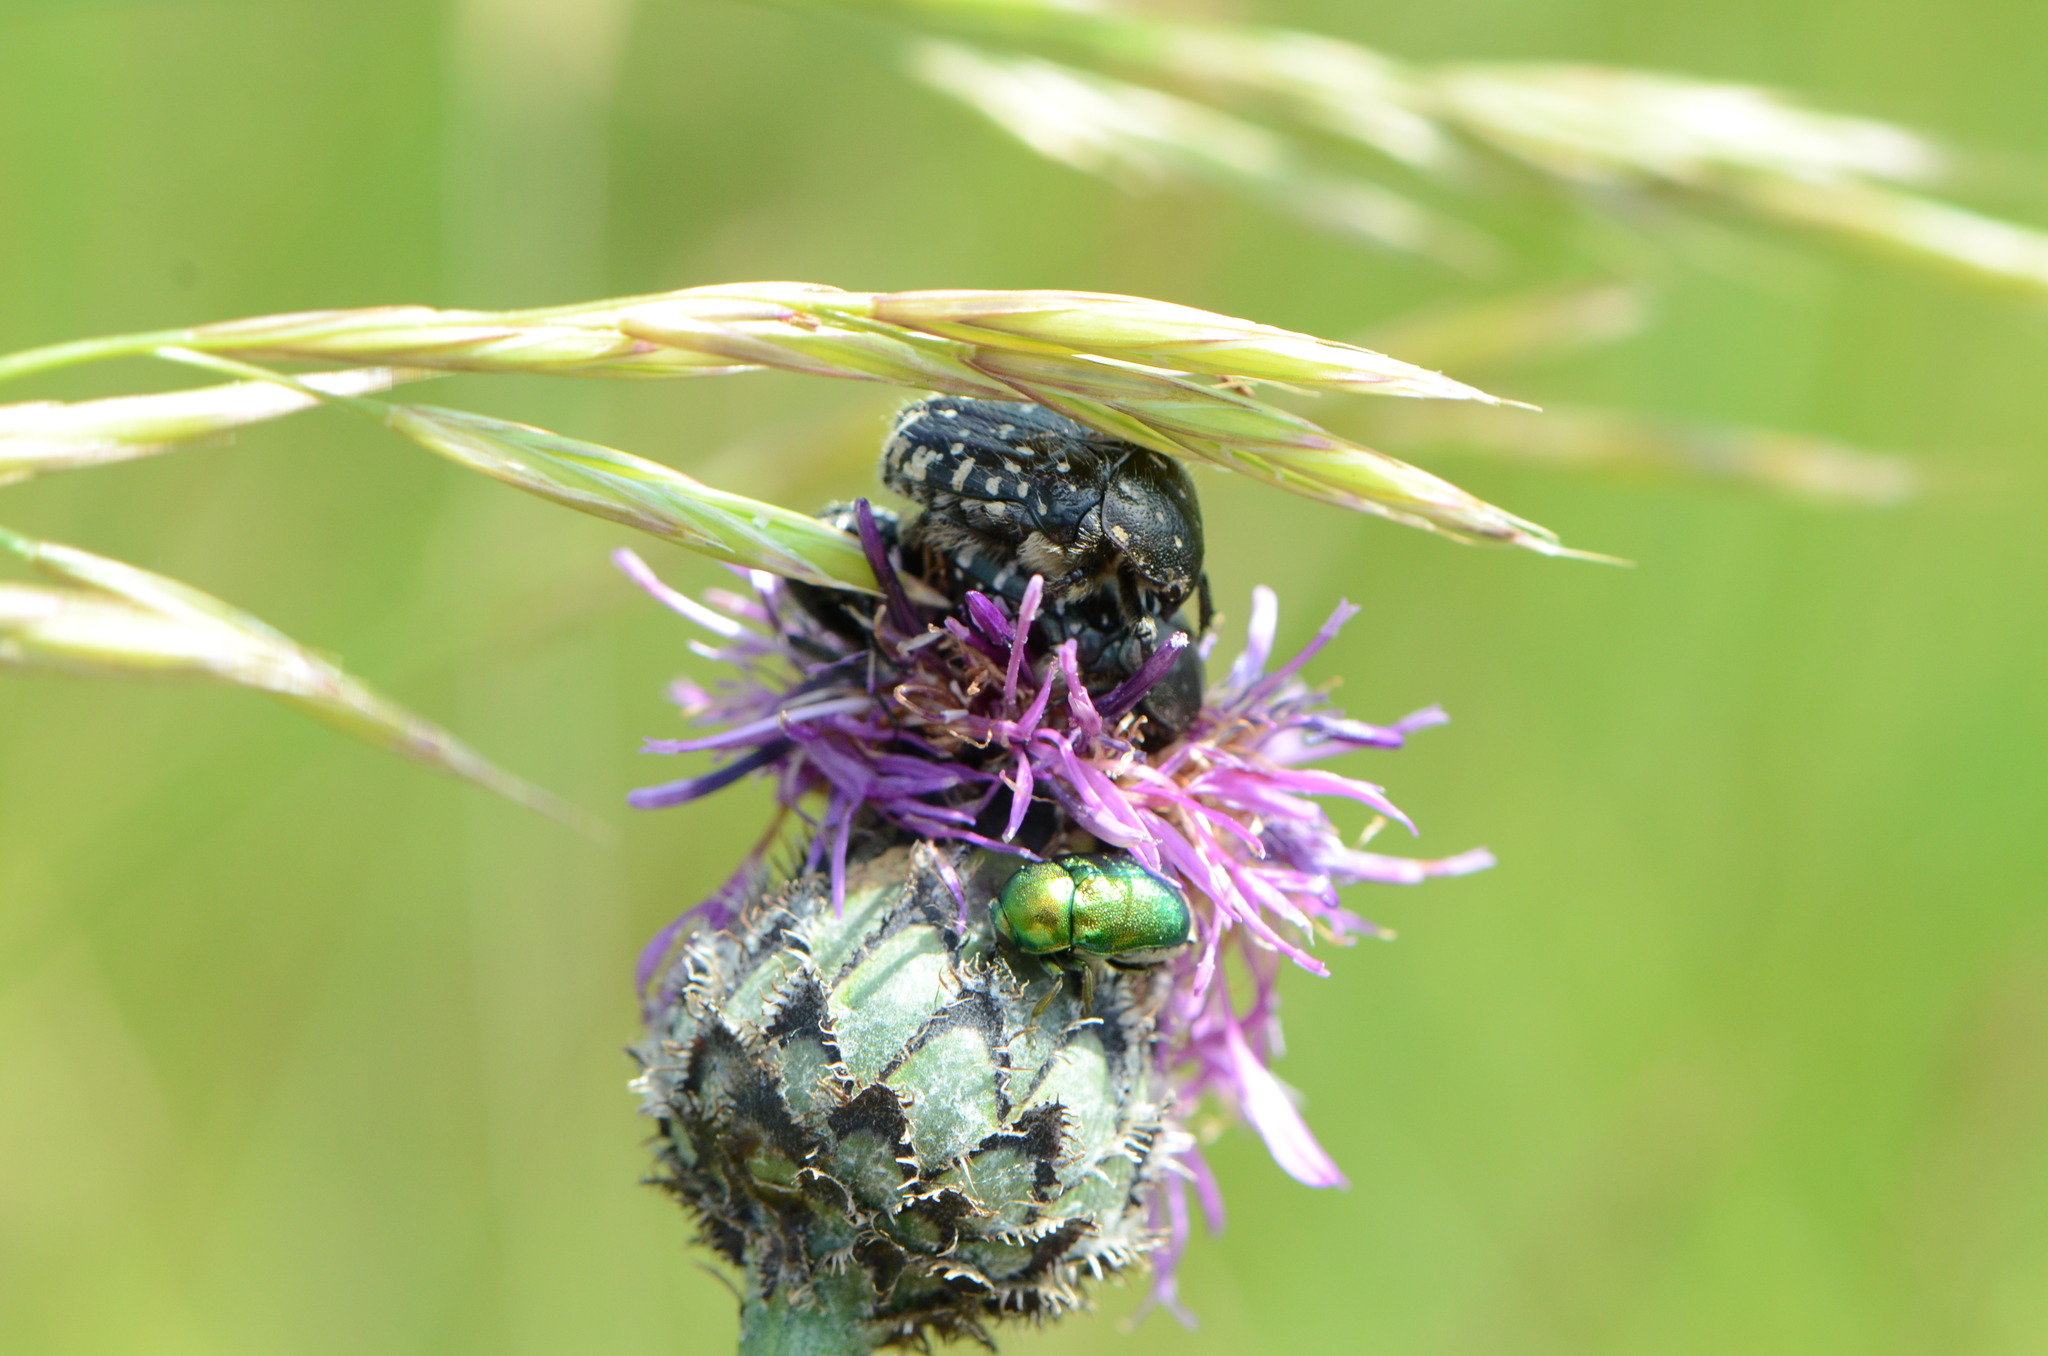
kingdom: Animalia
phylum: Arthropoda
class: Insecta
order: Coleoptera
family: Scarabaeidae
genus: Oxythyrea
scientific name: Oxythyrea funesta
